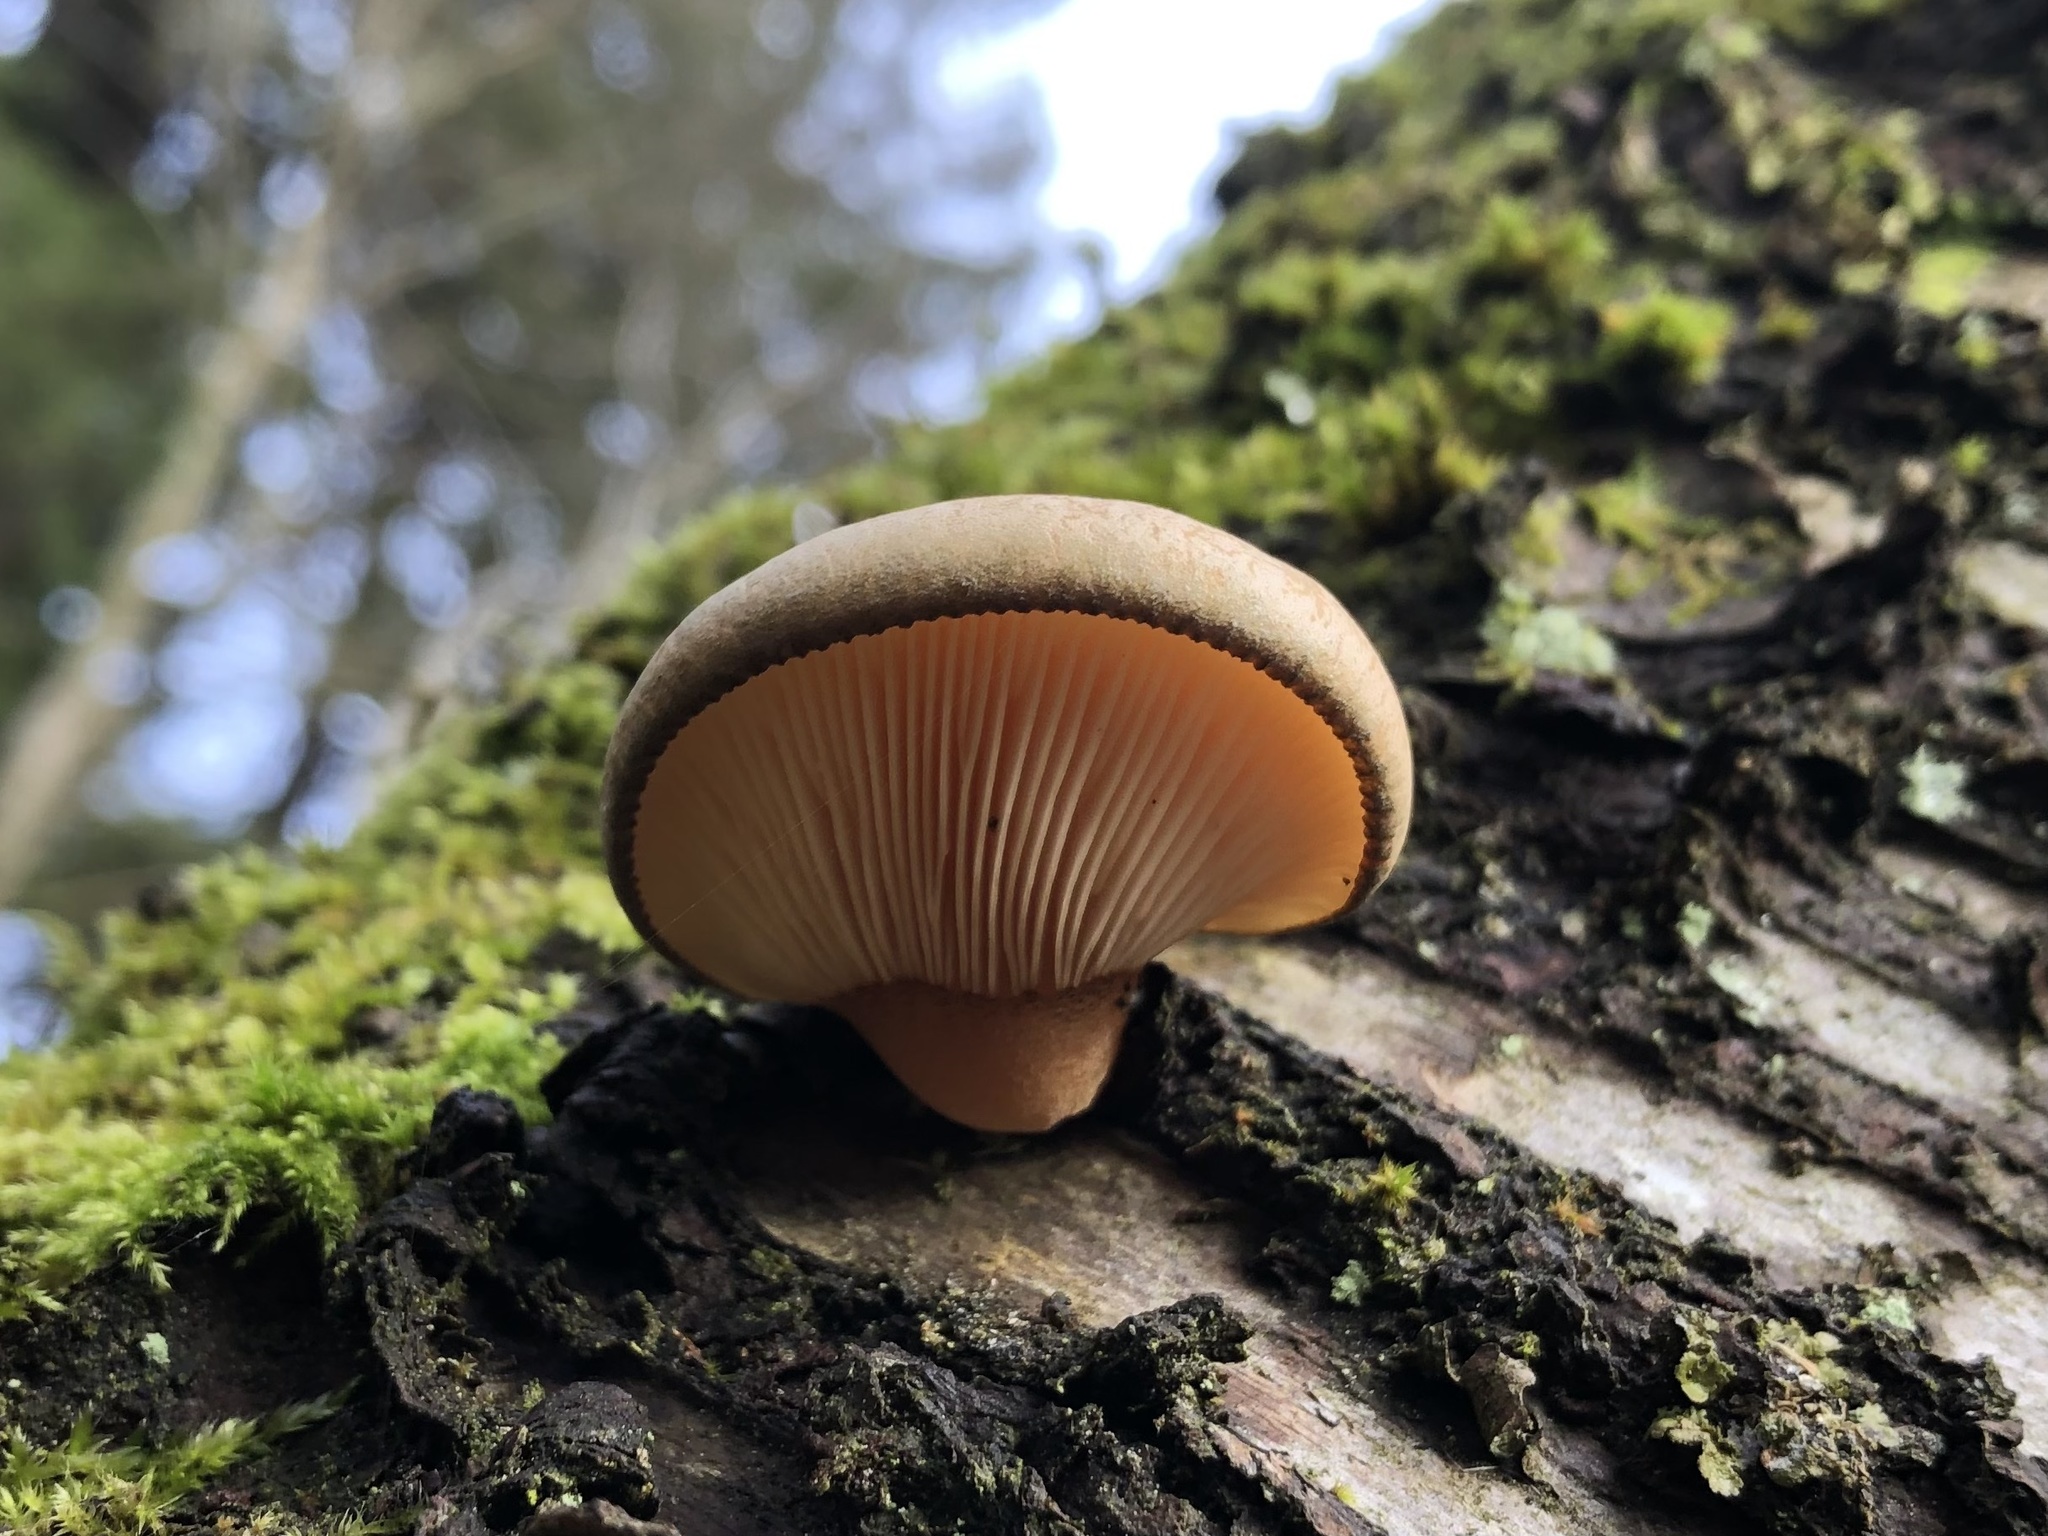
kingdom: Fungi
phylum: Basidiomycota
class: Agaricomycetes
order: Agaricales
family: Sarcomyxaceae
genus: Sarcomyxa
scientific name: Sarcomyxa serotina
